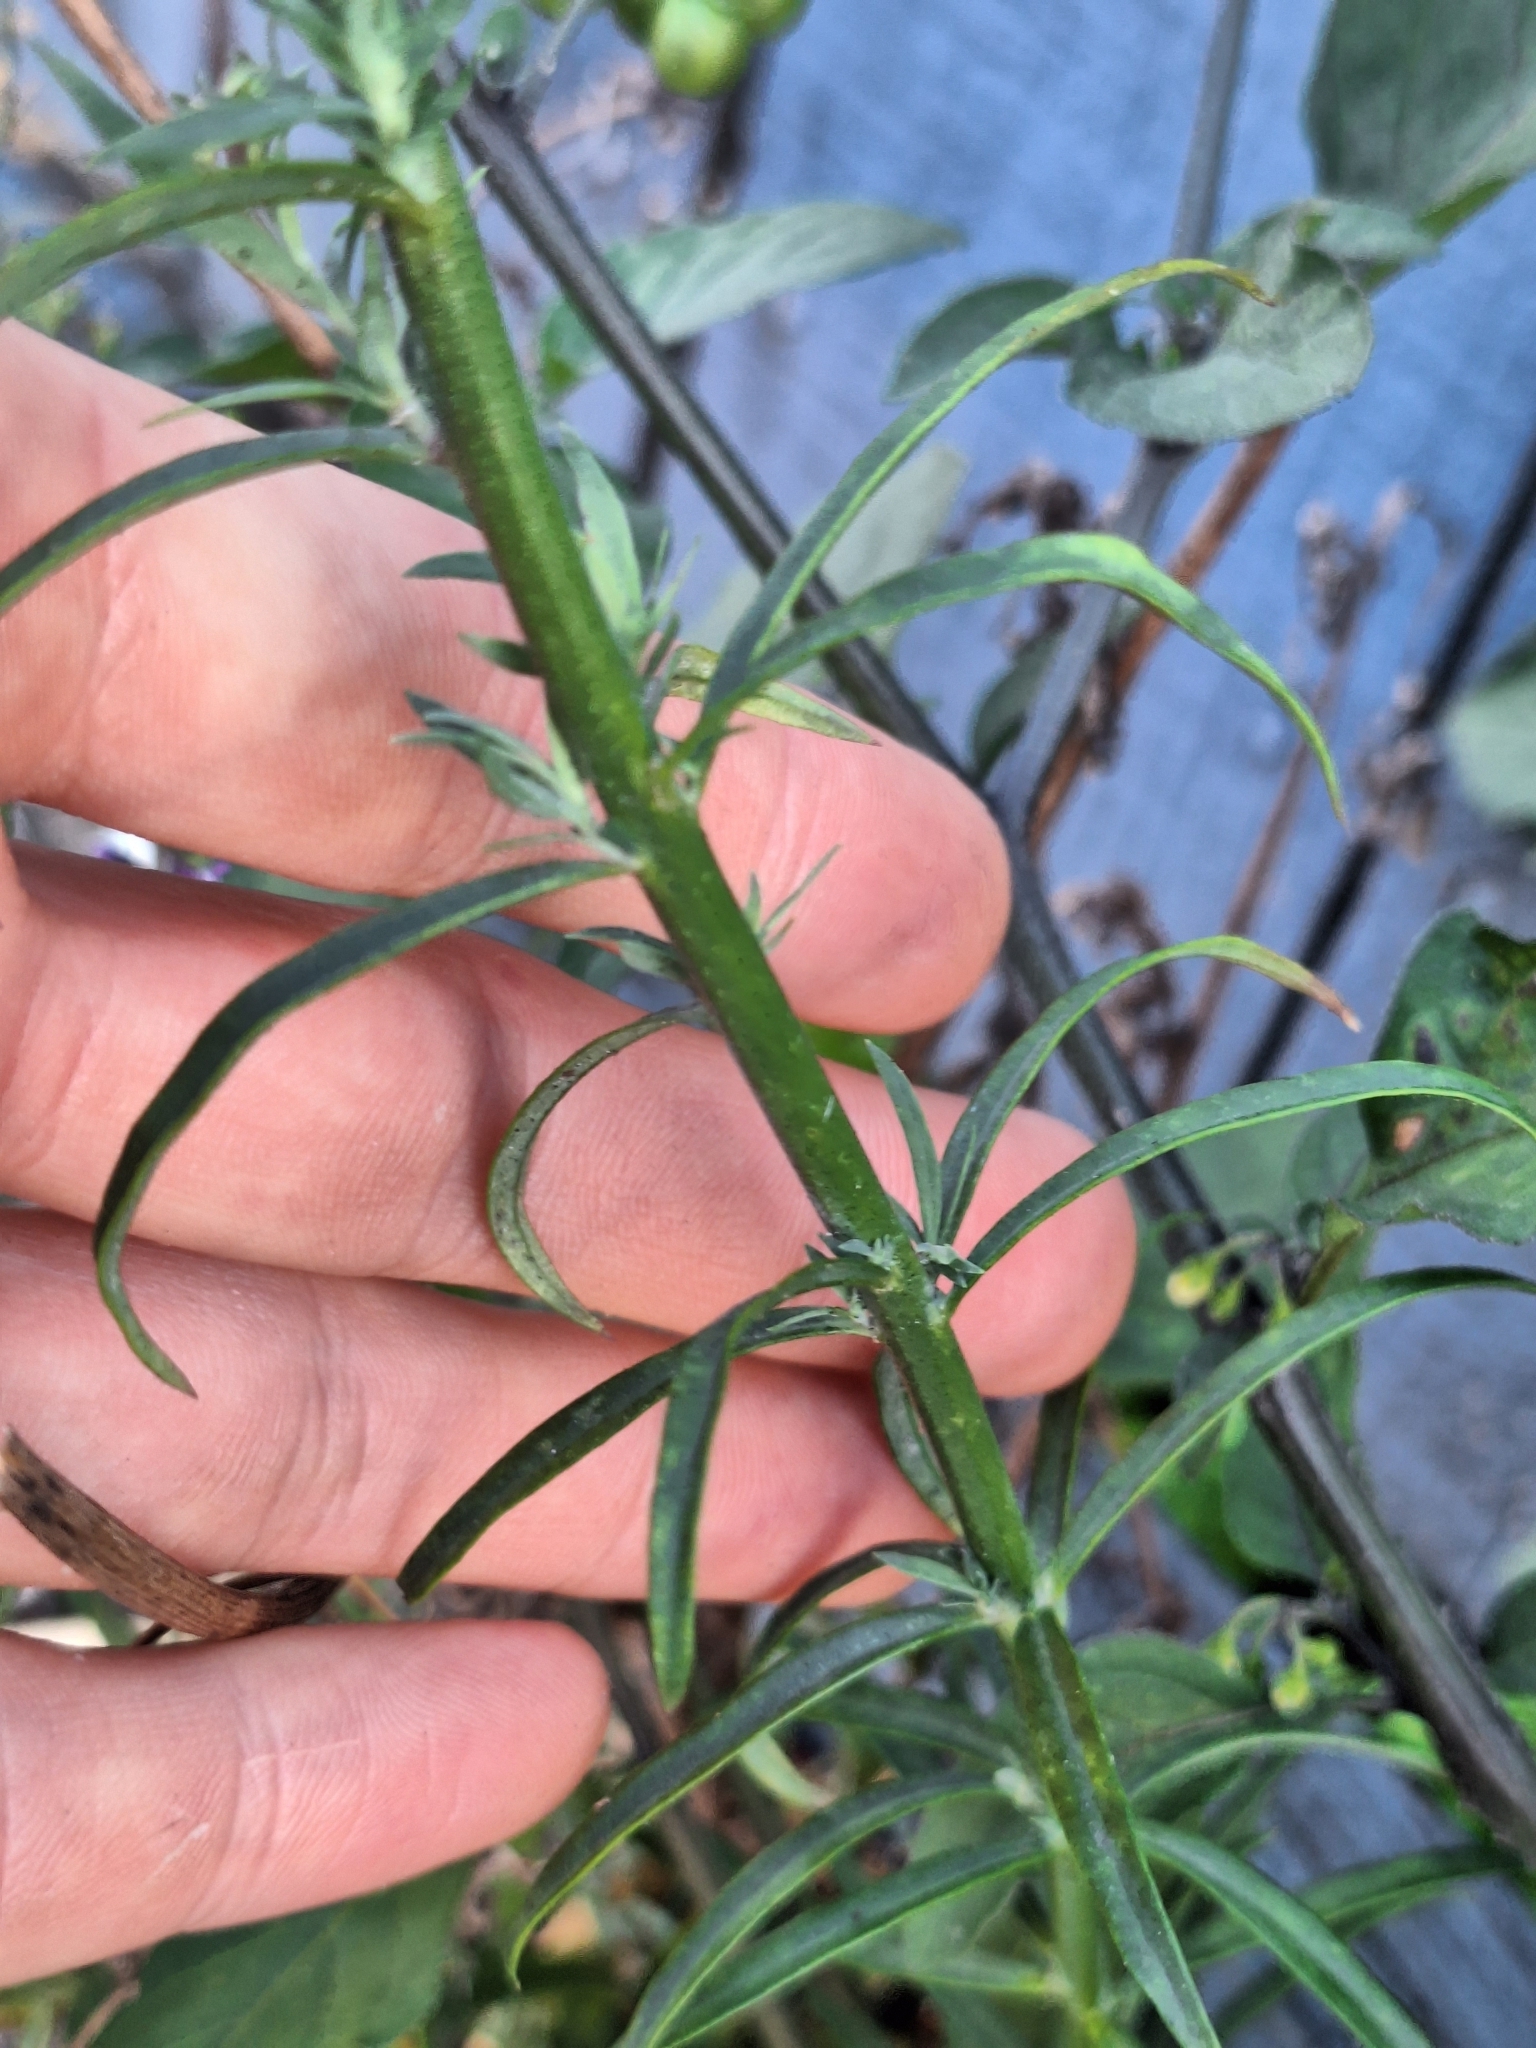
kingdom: Plantae
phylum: Tracheophyta
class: Magnoliopsida
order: Lamiales
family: Plantaginaceae
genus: Linaria
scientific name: Linaria purpurea
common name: Purple toadflax
